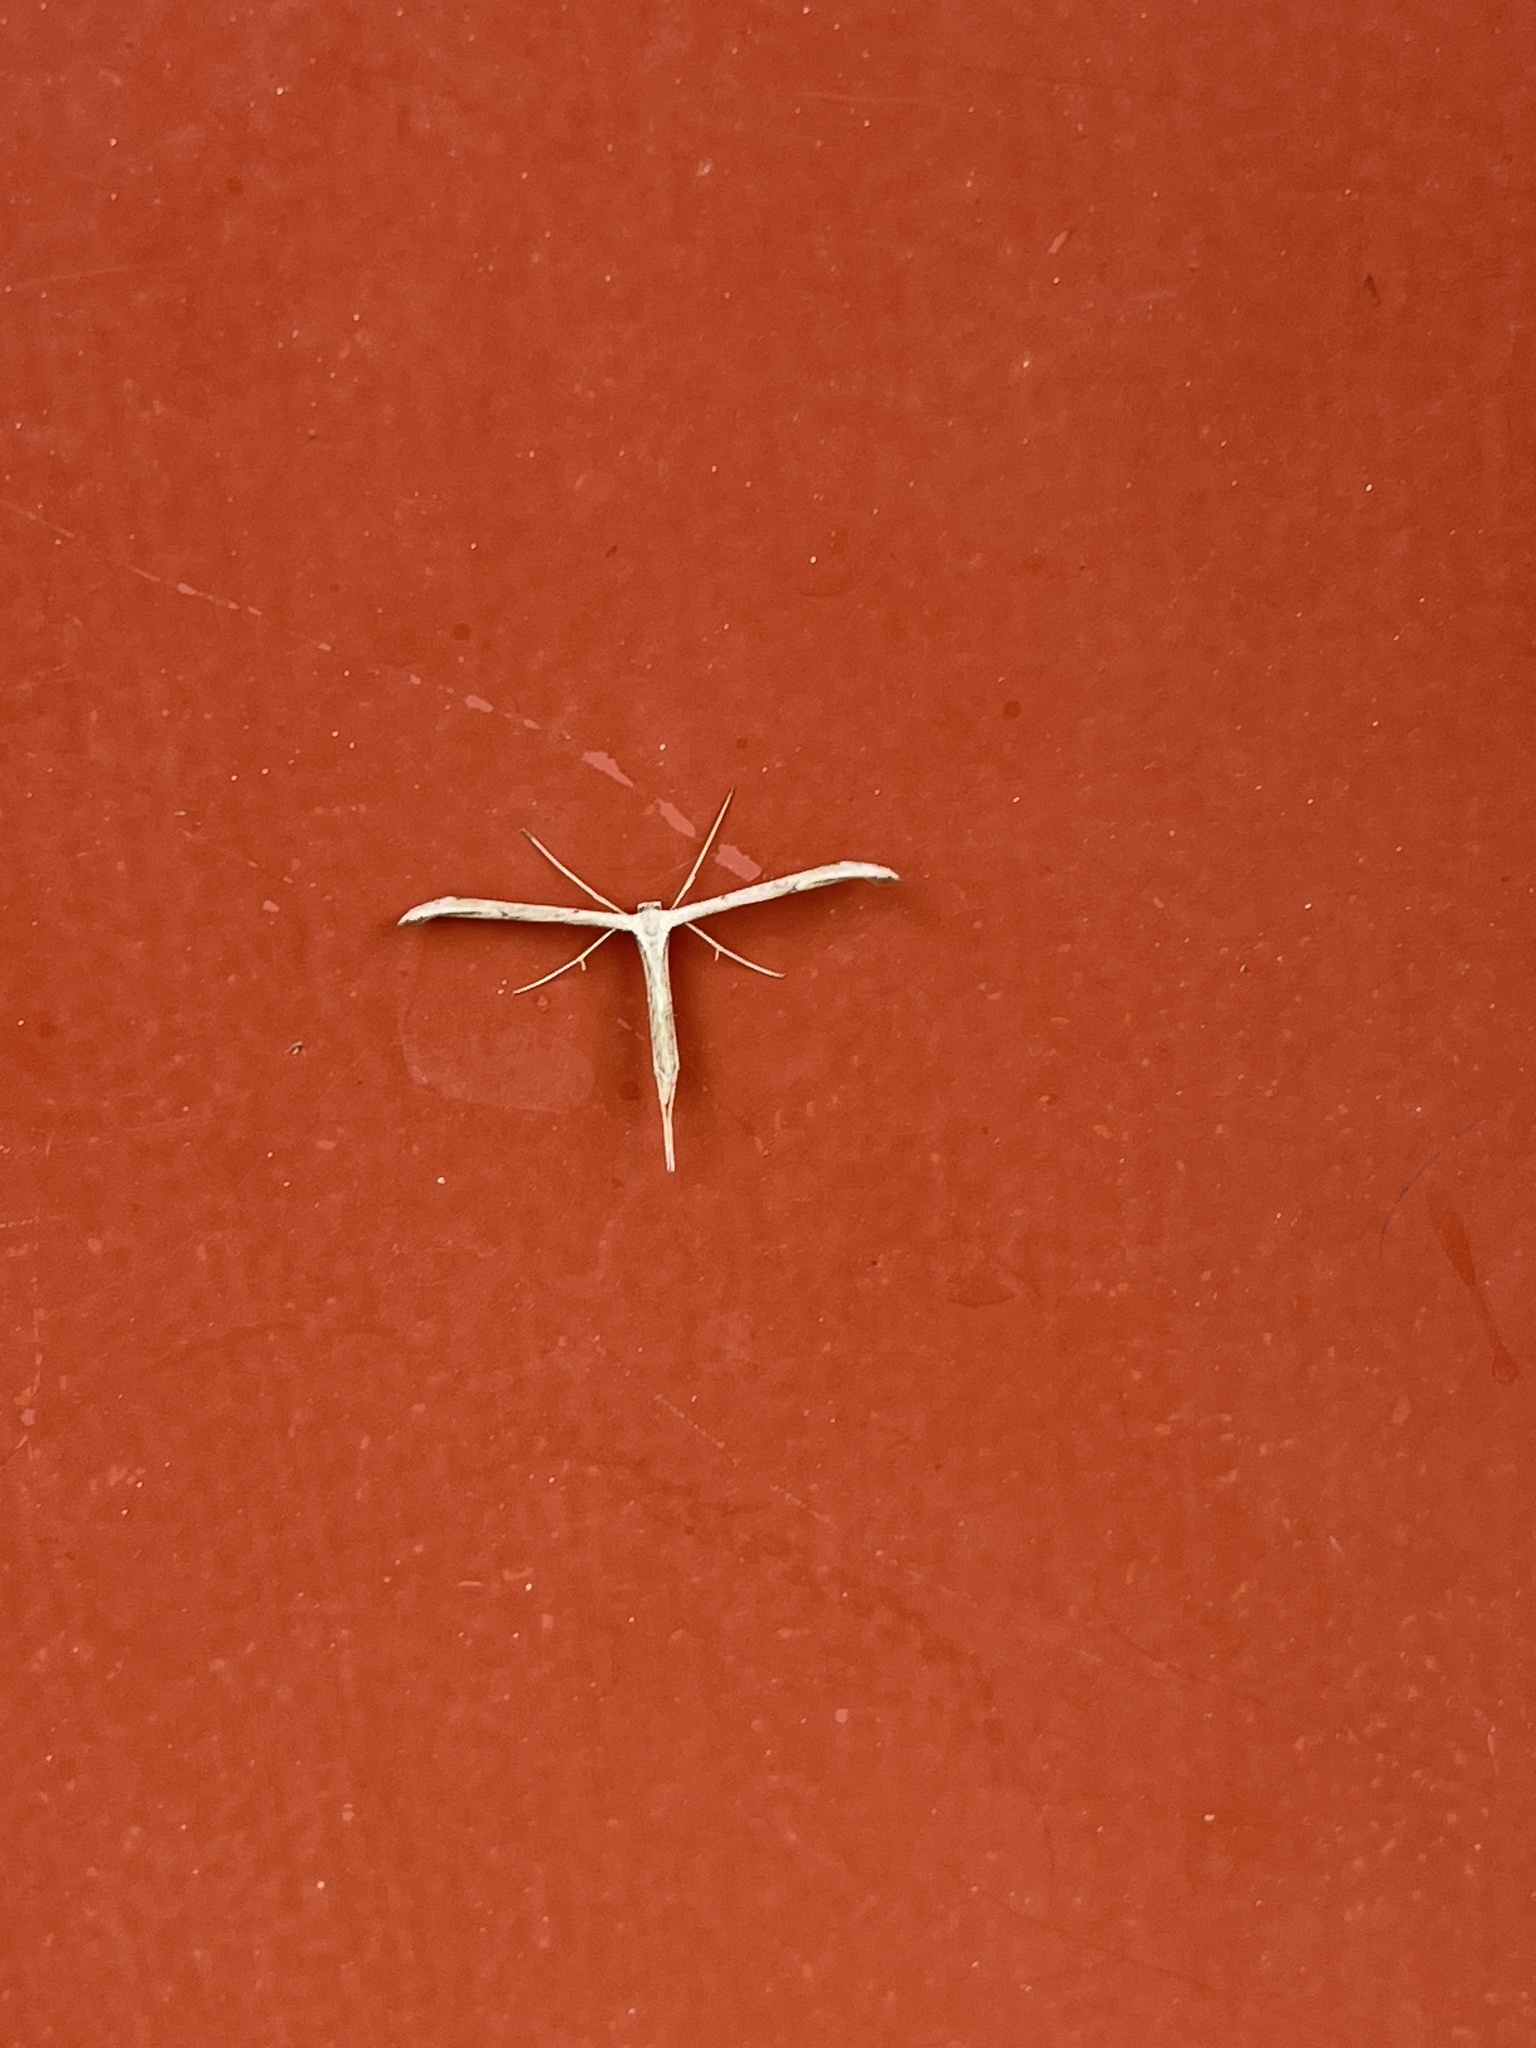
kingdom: Animalia
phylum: Arthropoda
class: Insecta
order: Lepidoptera
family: Pterophoridae
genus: Emmelina
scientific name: Emmelina monodactyla
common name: Common plume
